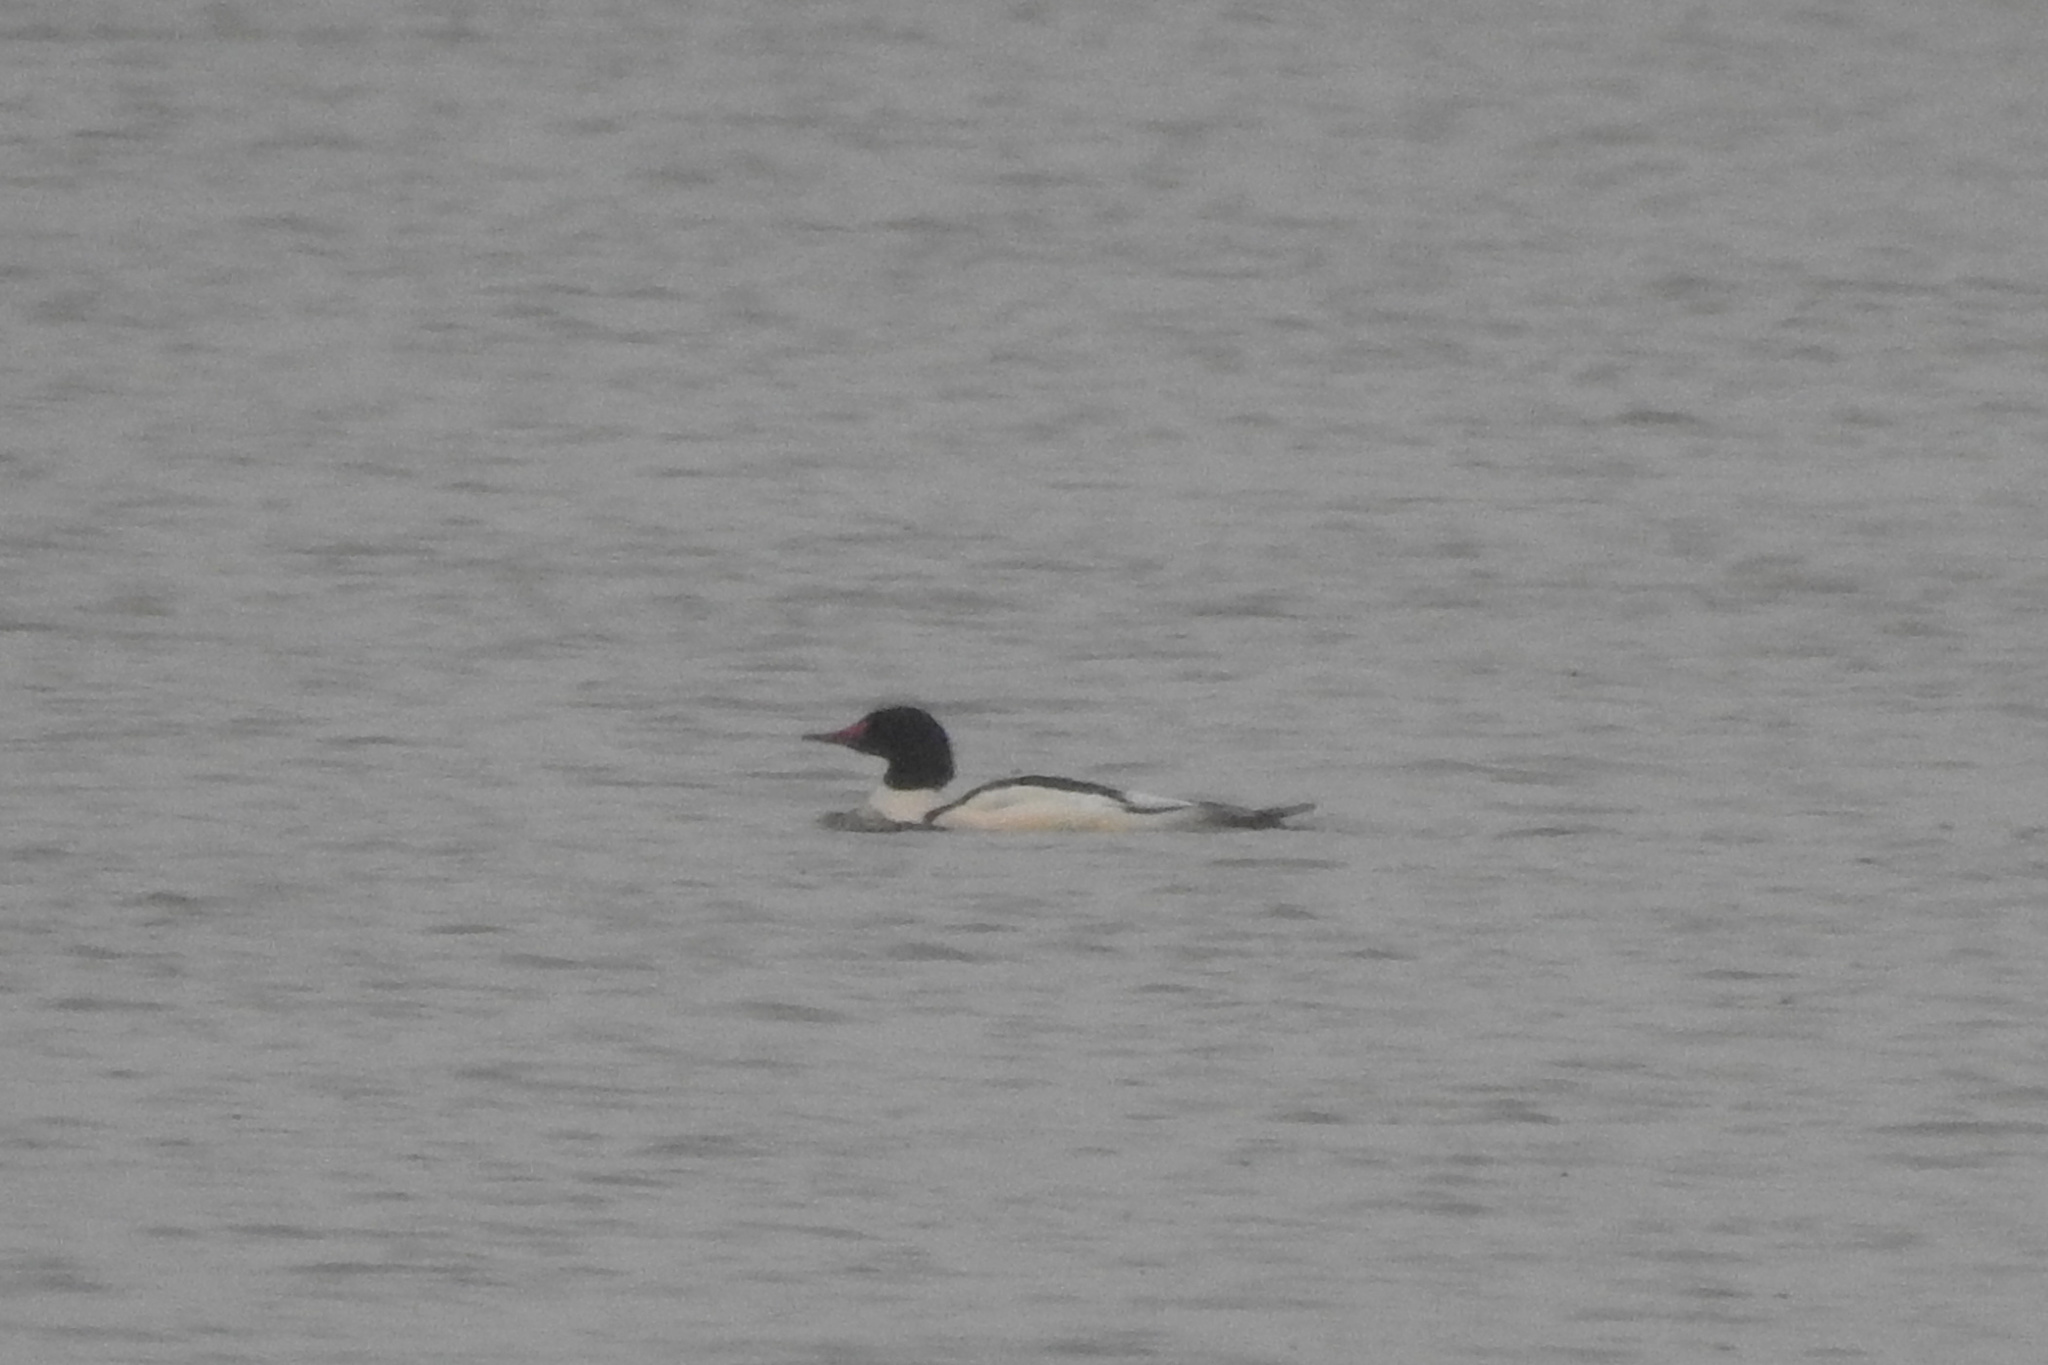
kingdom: Animalia
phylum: Chordata
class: Aves
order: Anseriformes
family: Anatidae
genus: Mergus
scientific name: Mergus merganser
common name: Common merganser
